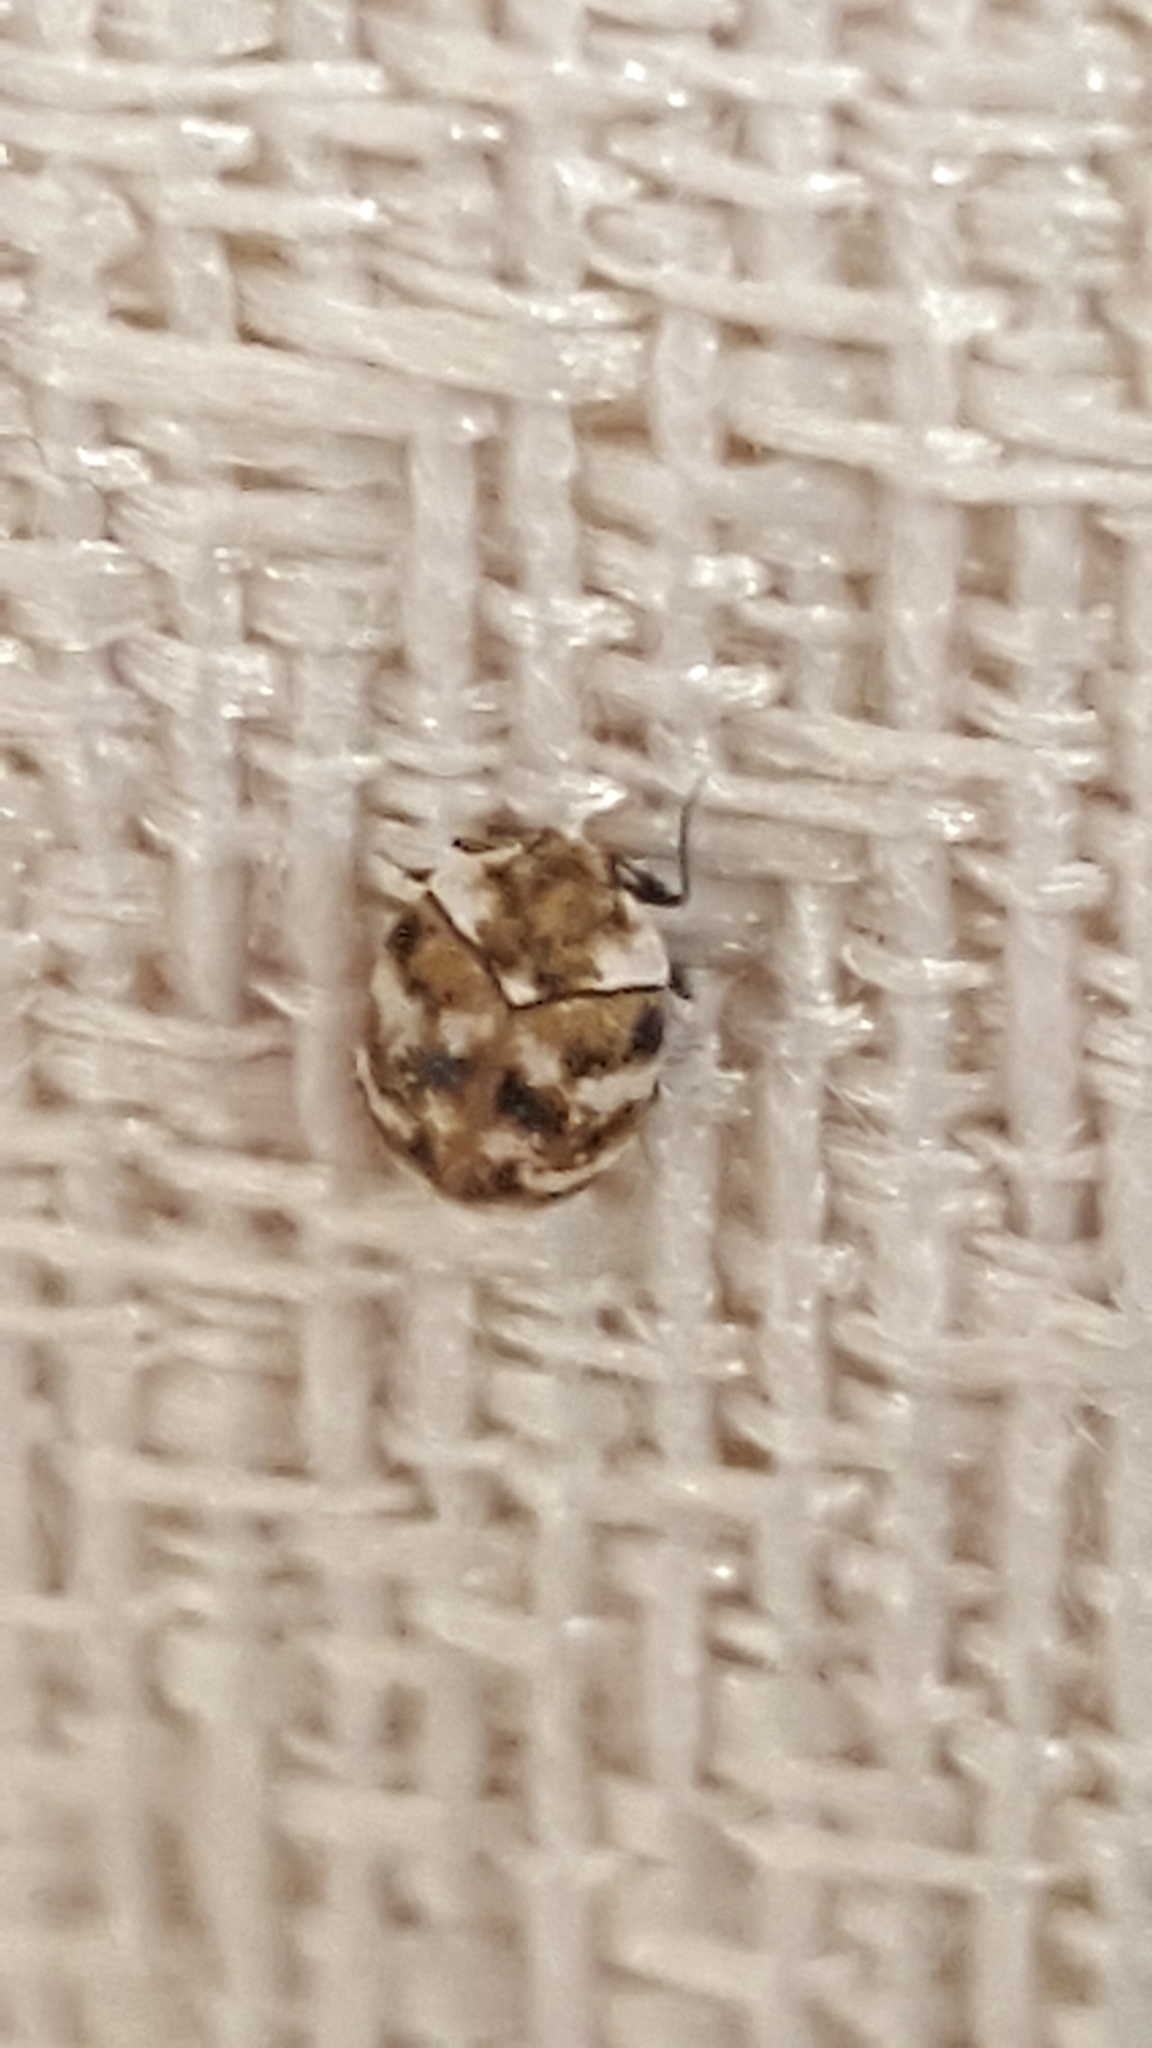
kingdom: Animalia
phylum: Arthropoda
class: Insecta
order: Coleoptera
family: Dermestidae
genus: Anthrenus
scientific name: Anthrenus verbasci
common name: Varied carpet beetle
